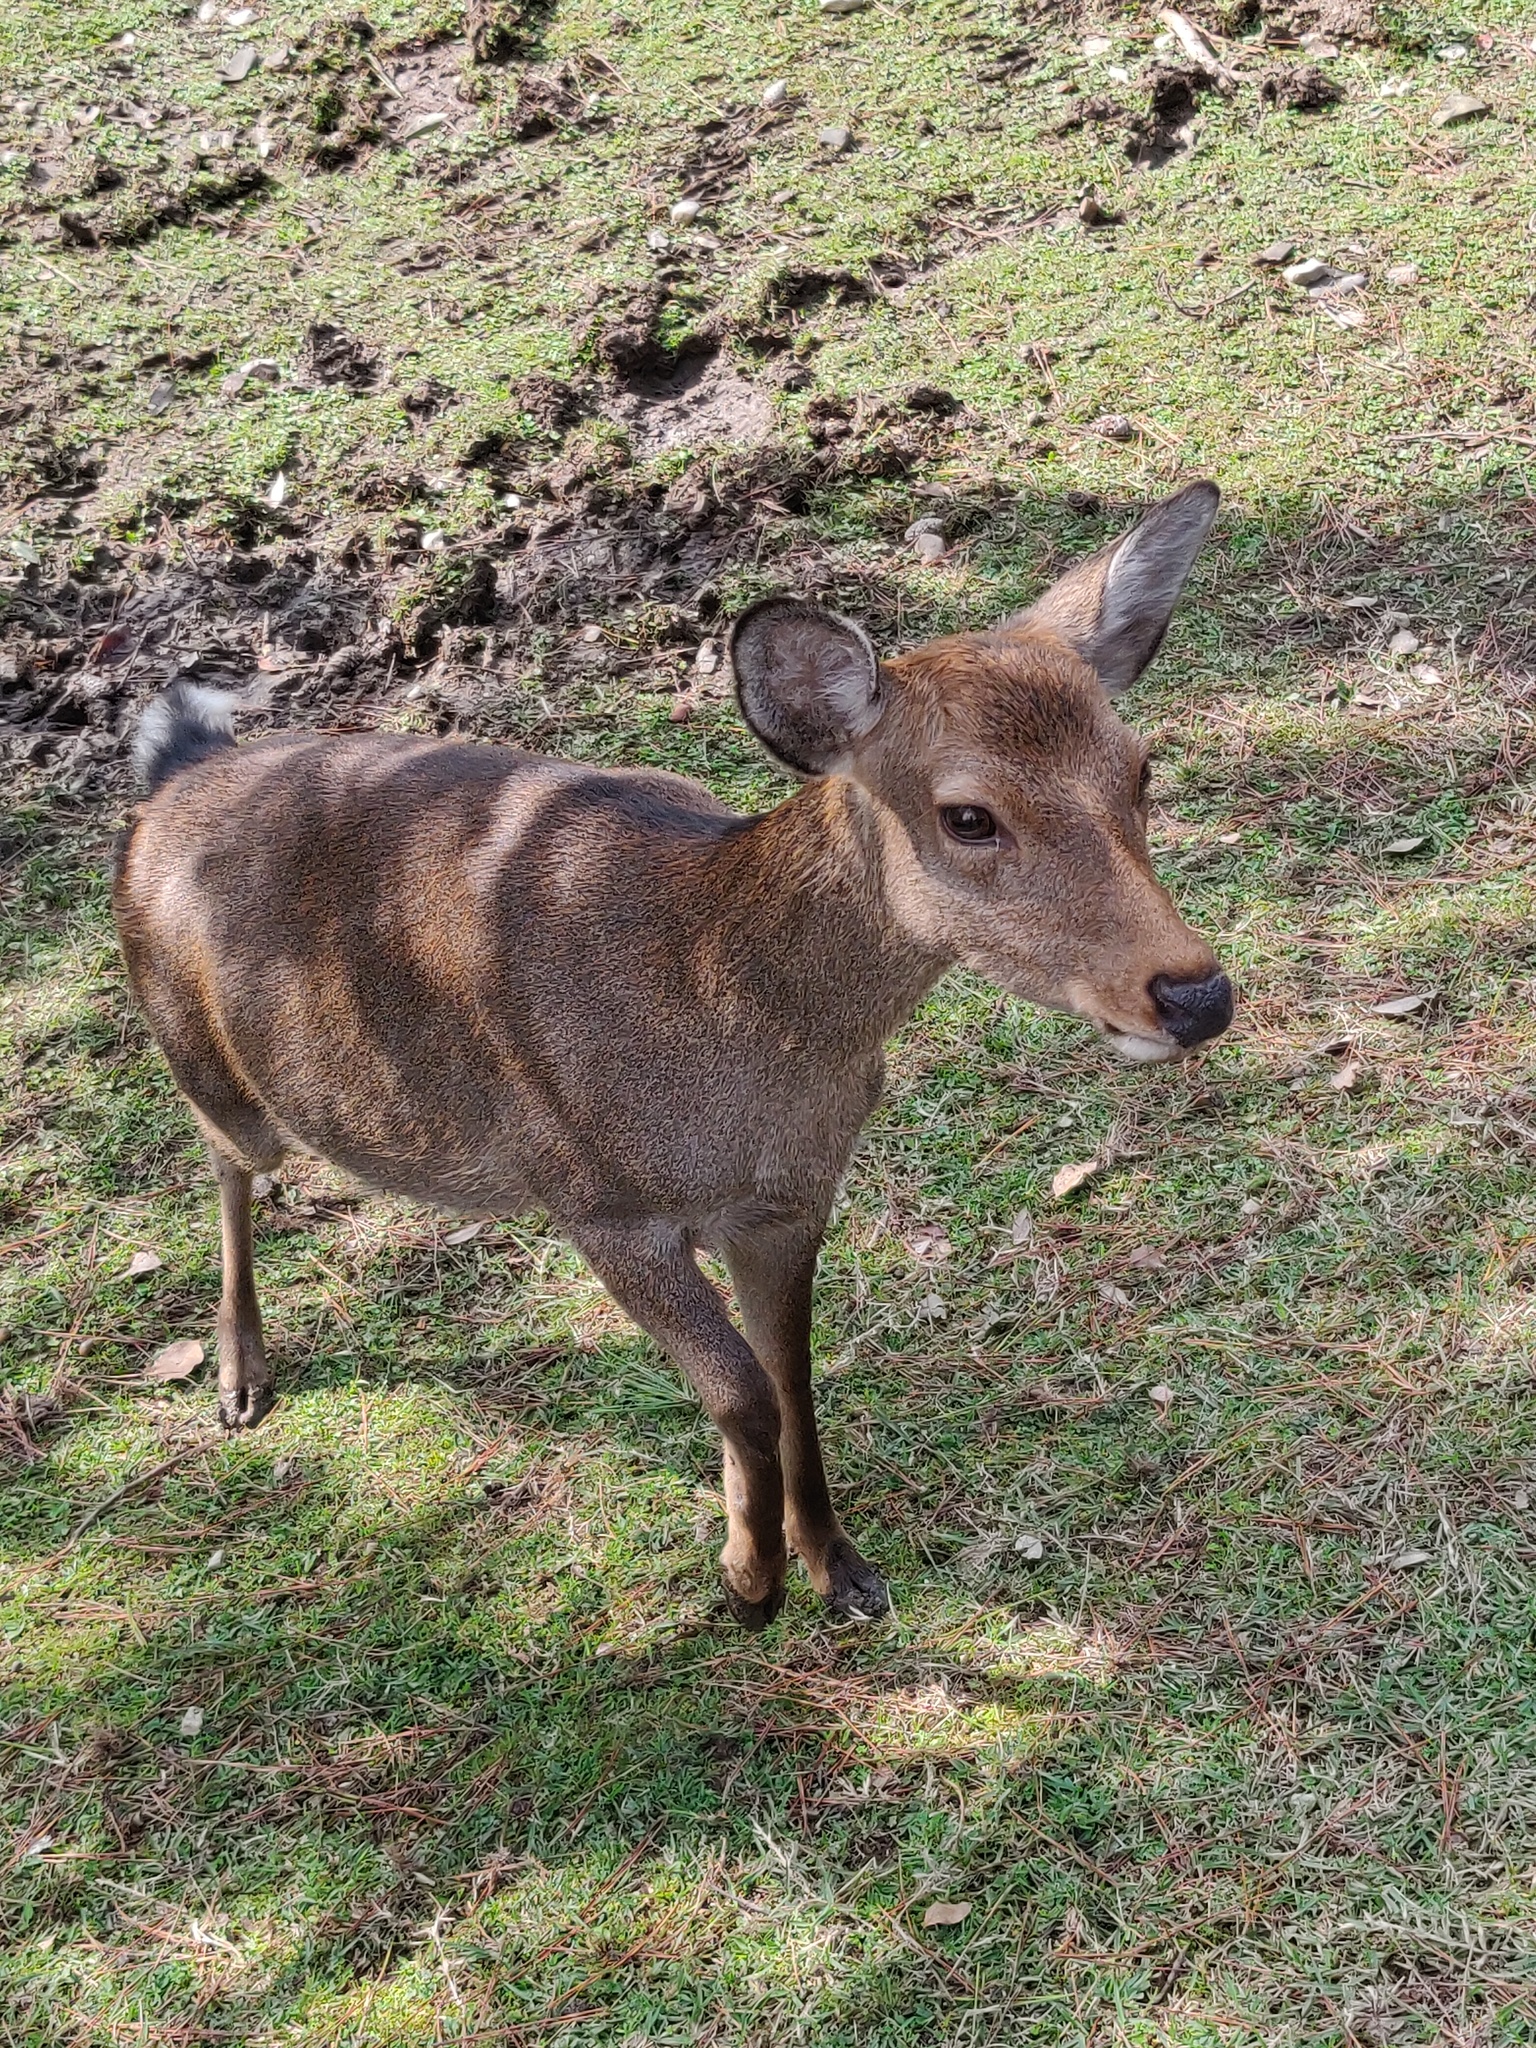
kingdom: Animalia
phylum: Chordata
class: Mammalia
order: Artiodactyla
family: Cervidae
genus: Cervus
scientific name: Cervus nippon
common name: Sika deer
